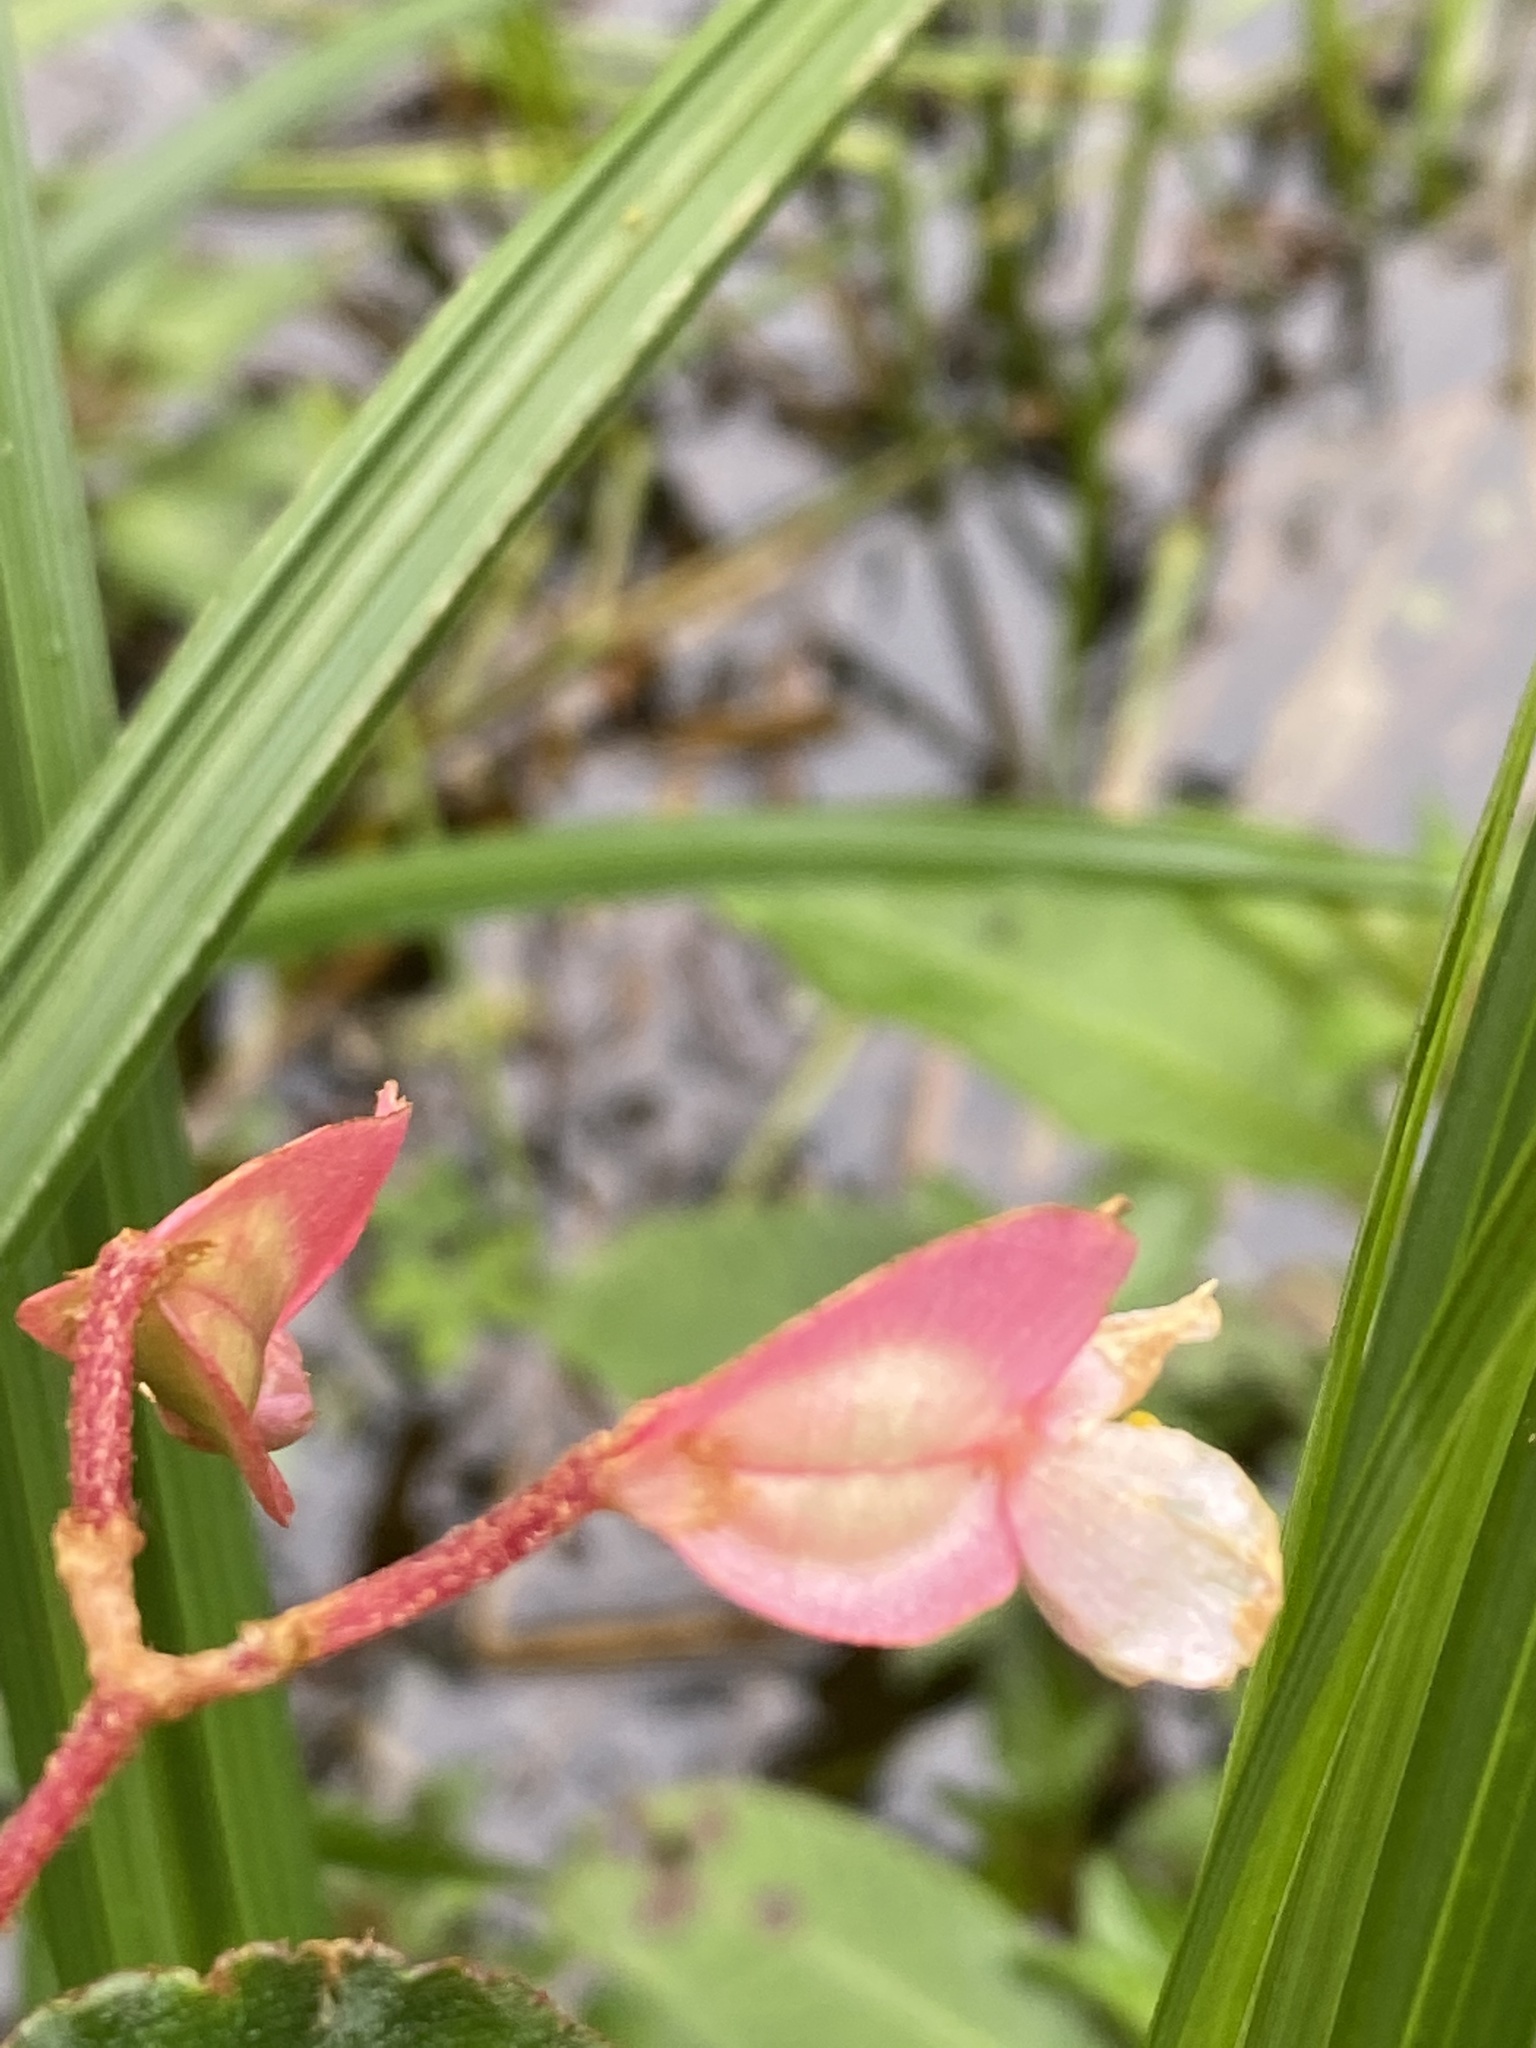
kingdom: Plantae
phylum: Tracheophyta
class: Magnoliopsida
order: Cucurbitales
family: Begoniaceae
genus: Begonia
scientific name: Begonia fischeri
